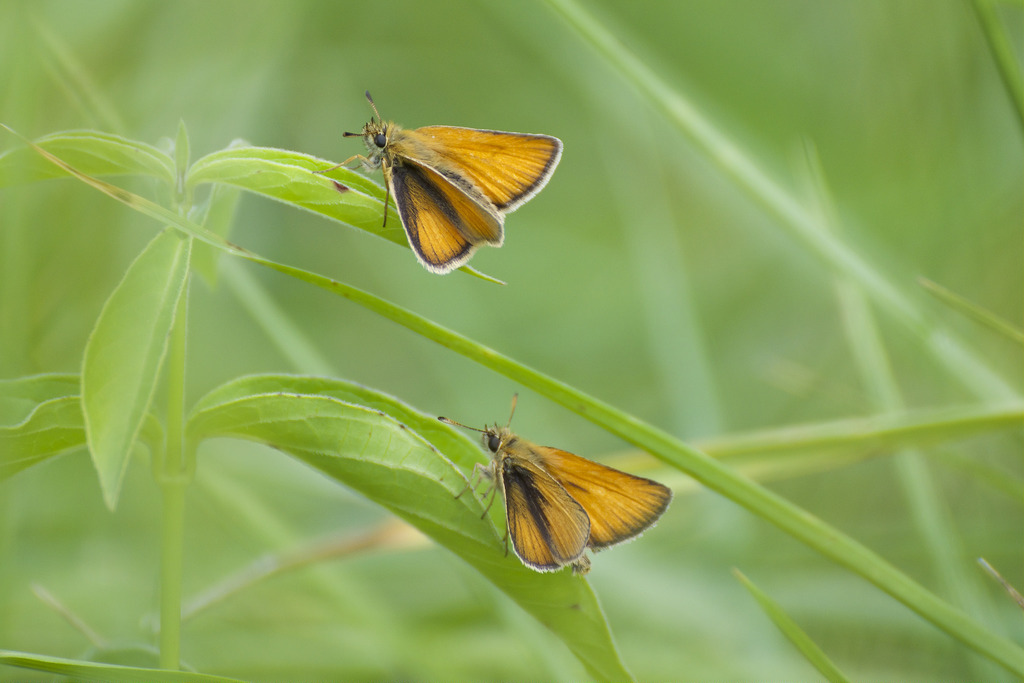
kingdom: Animalia
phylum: Arthropoda
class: Insecta
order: Lepidoptera
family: Hesperiidae
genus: Thymelicus
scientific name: Thymelicus lineola
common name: Essex skipper
